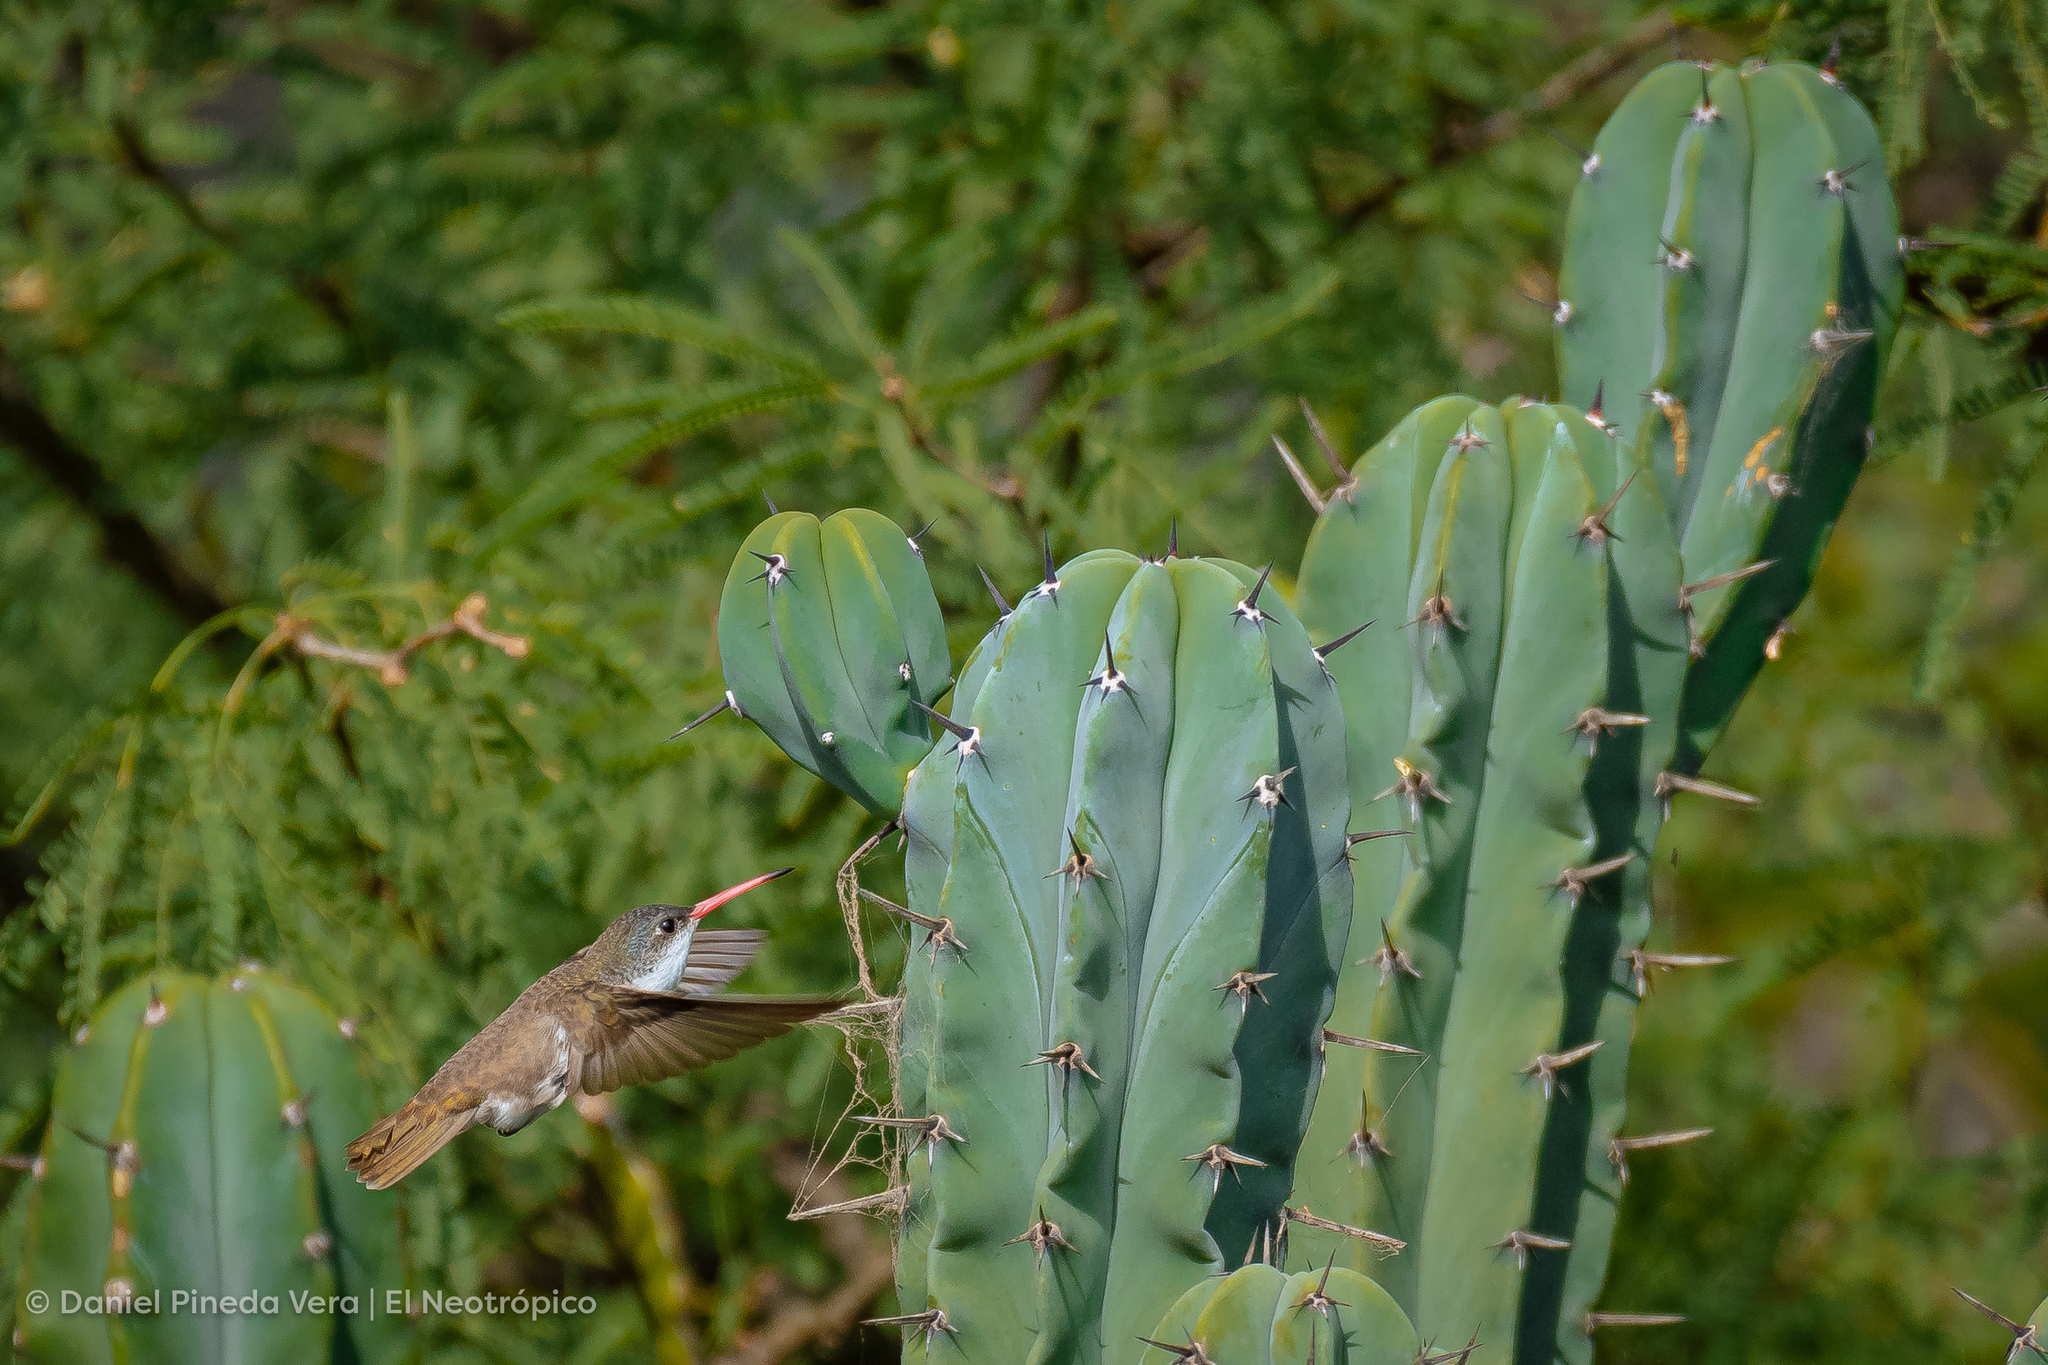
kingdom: Animalia
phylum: Chordata
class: Aves
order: Apodiformes
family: Trochilidae
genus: Leucolia
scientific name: Leucolia violiceps
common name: Violet-crowned hummingbird
